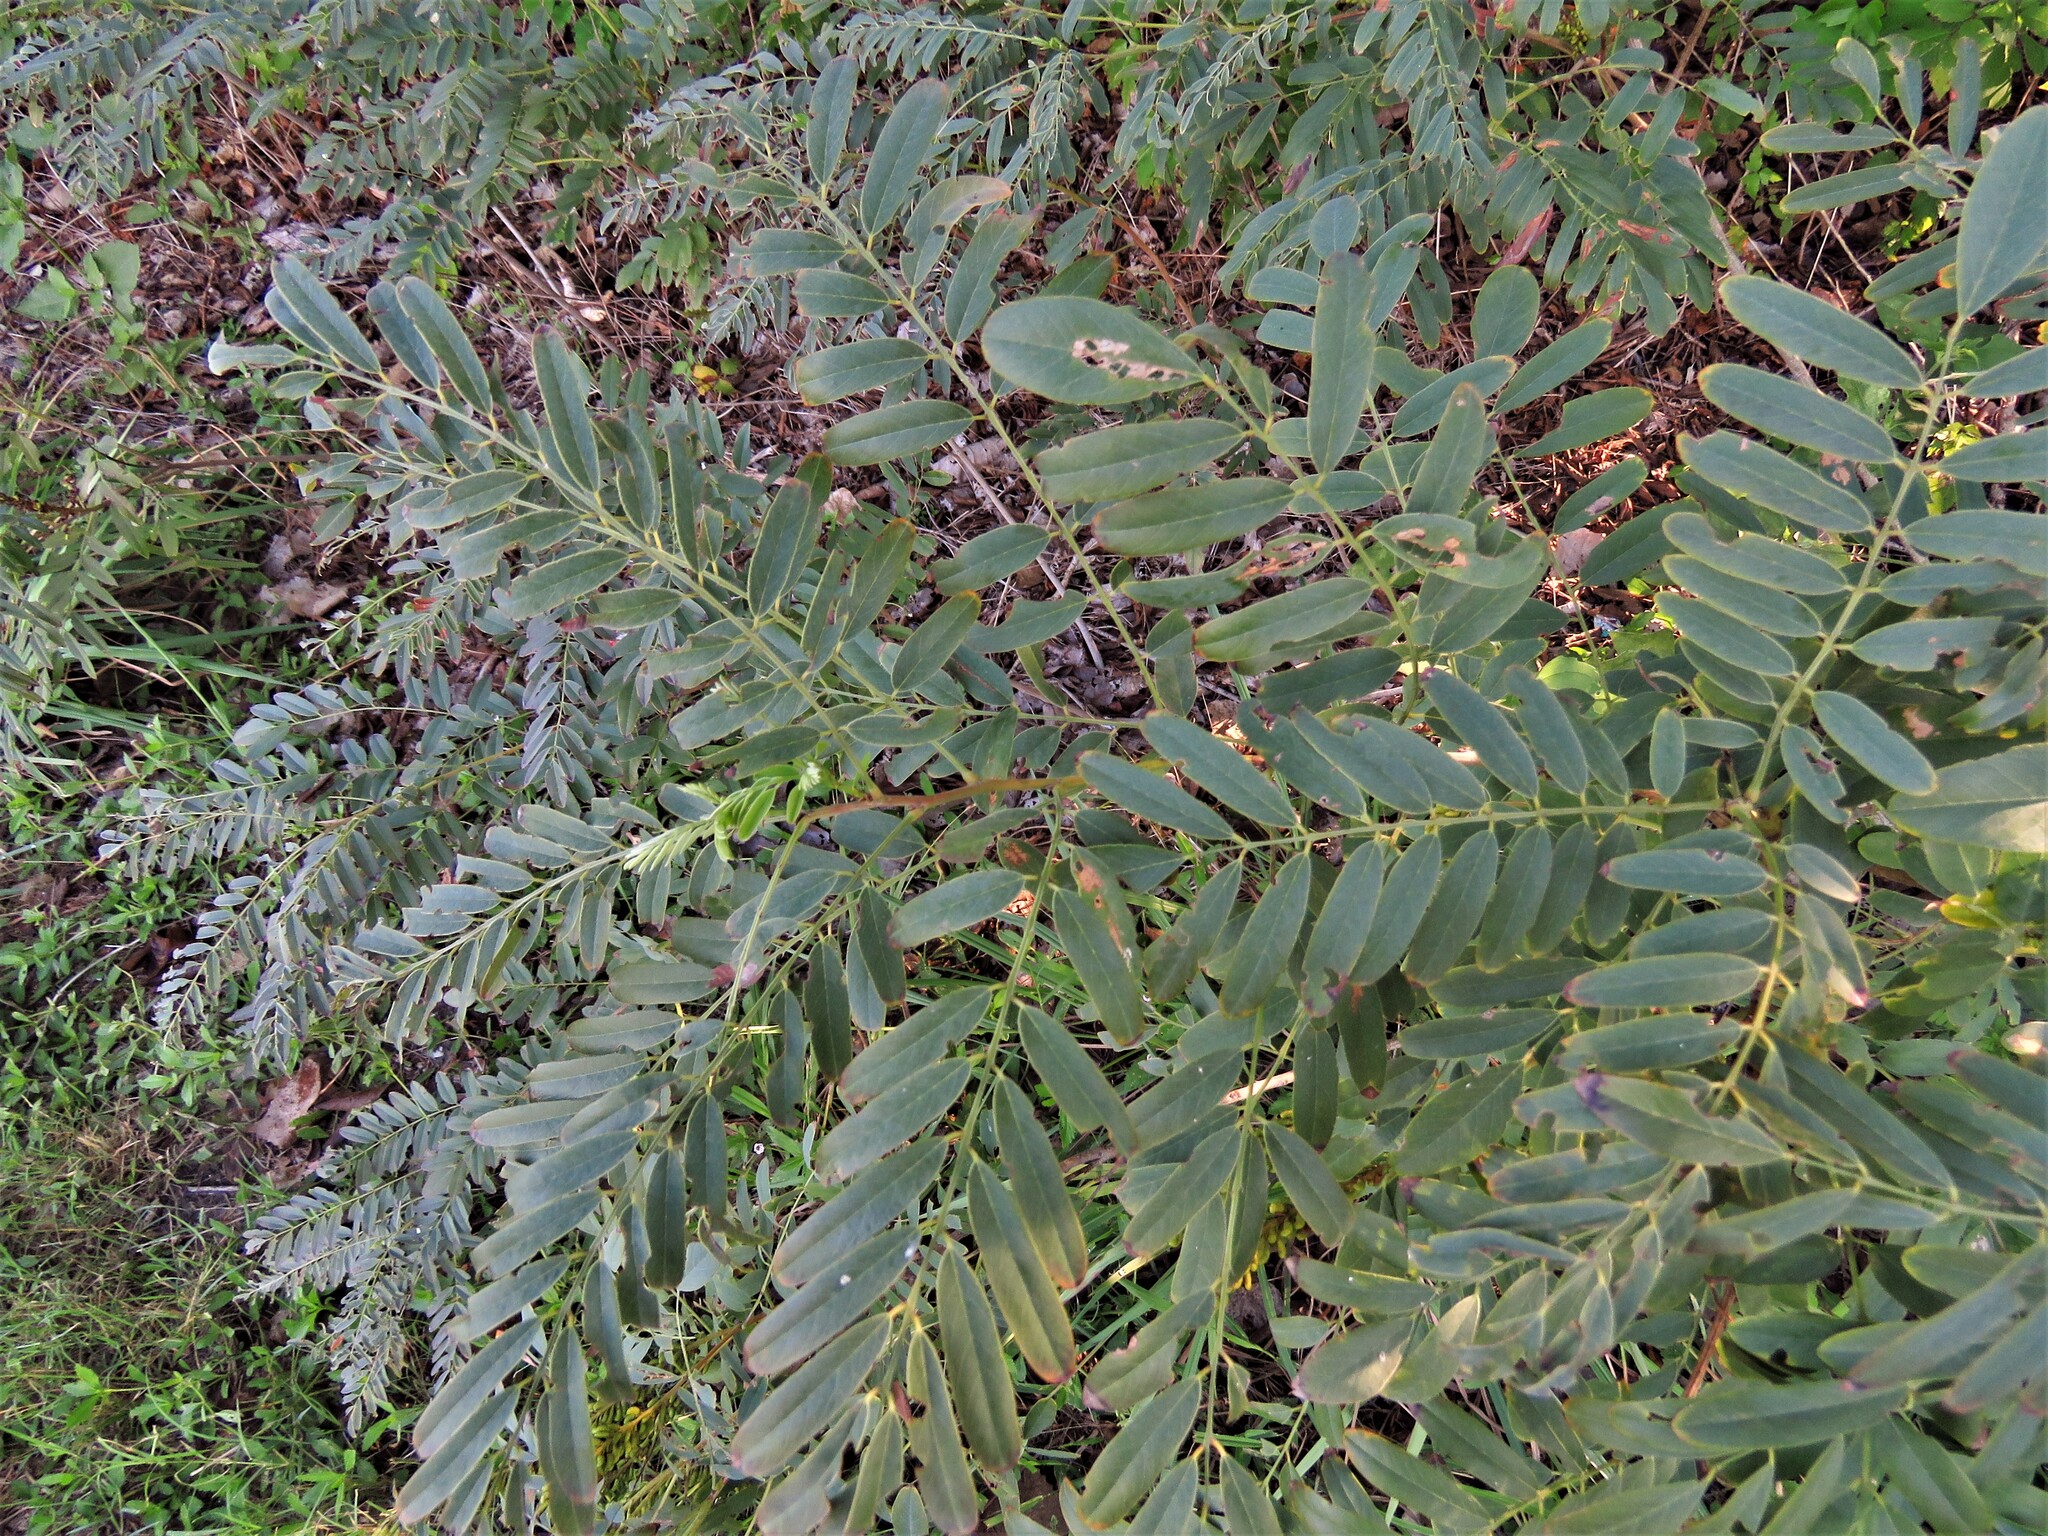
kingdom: Plantae
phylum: Tracheophyta
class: Magnoliopsida
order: Fabales
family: Fabaceae
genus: Amorpha
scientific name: Amorpha fruticosa
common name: False indigo
